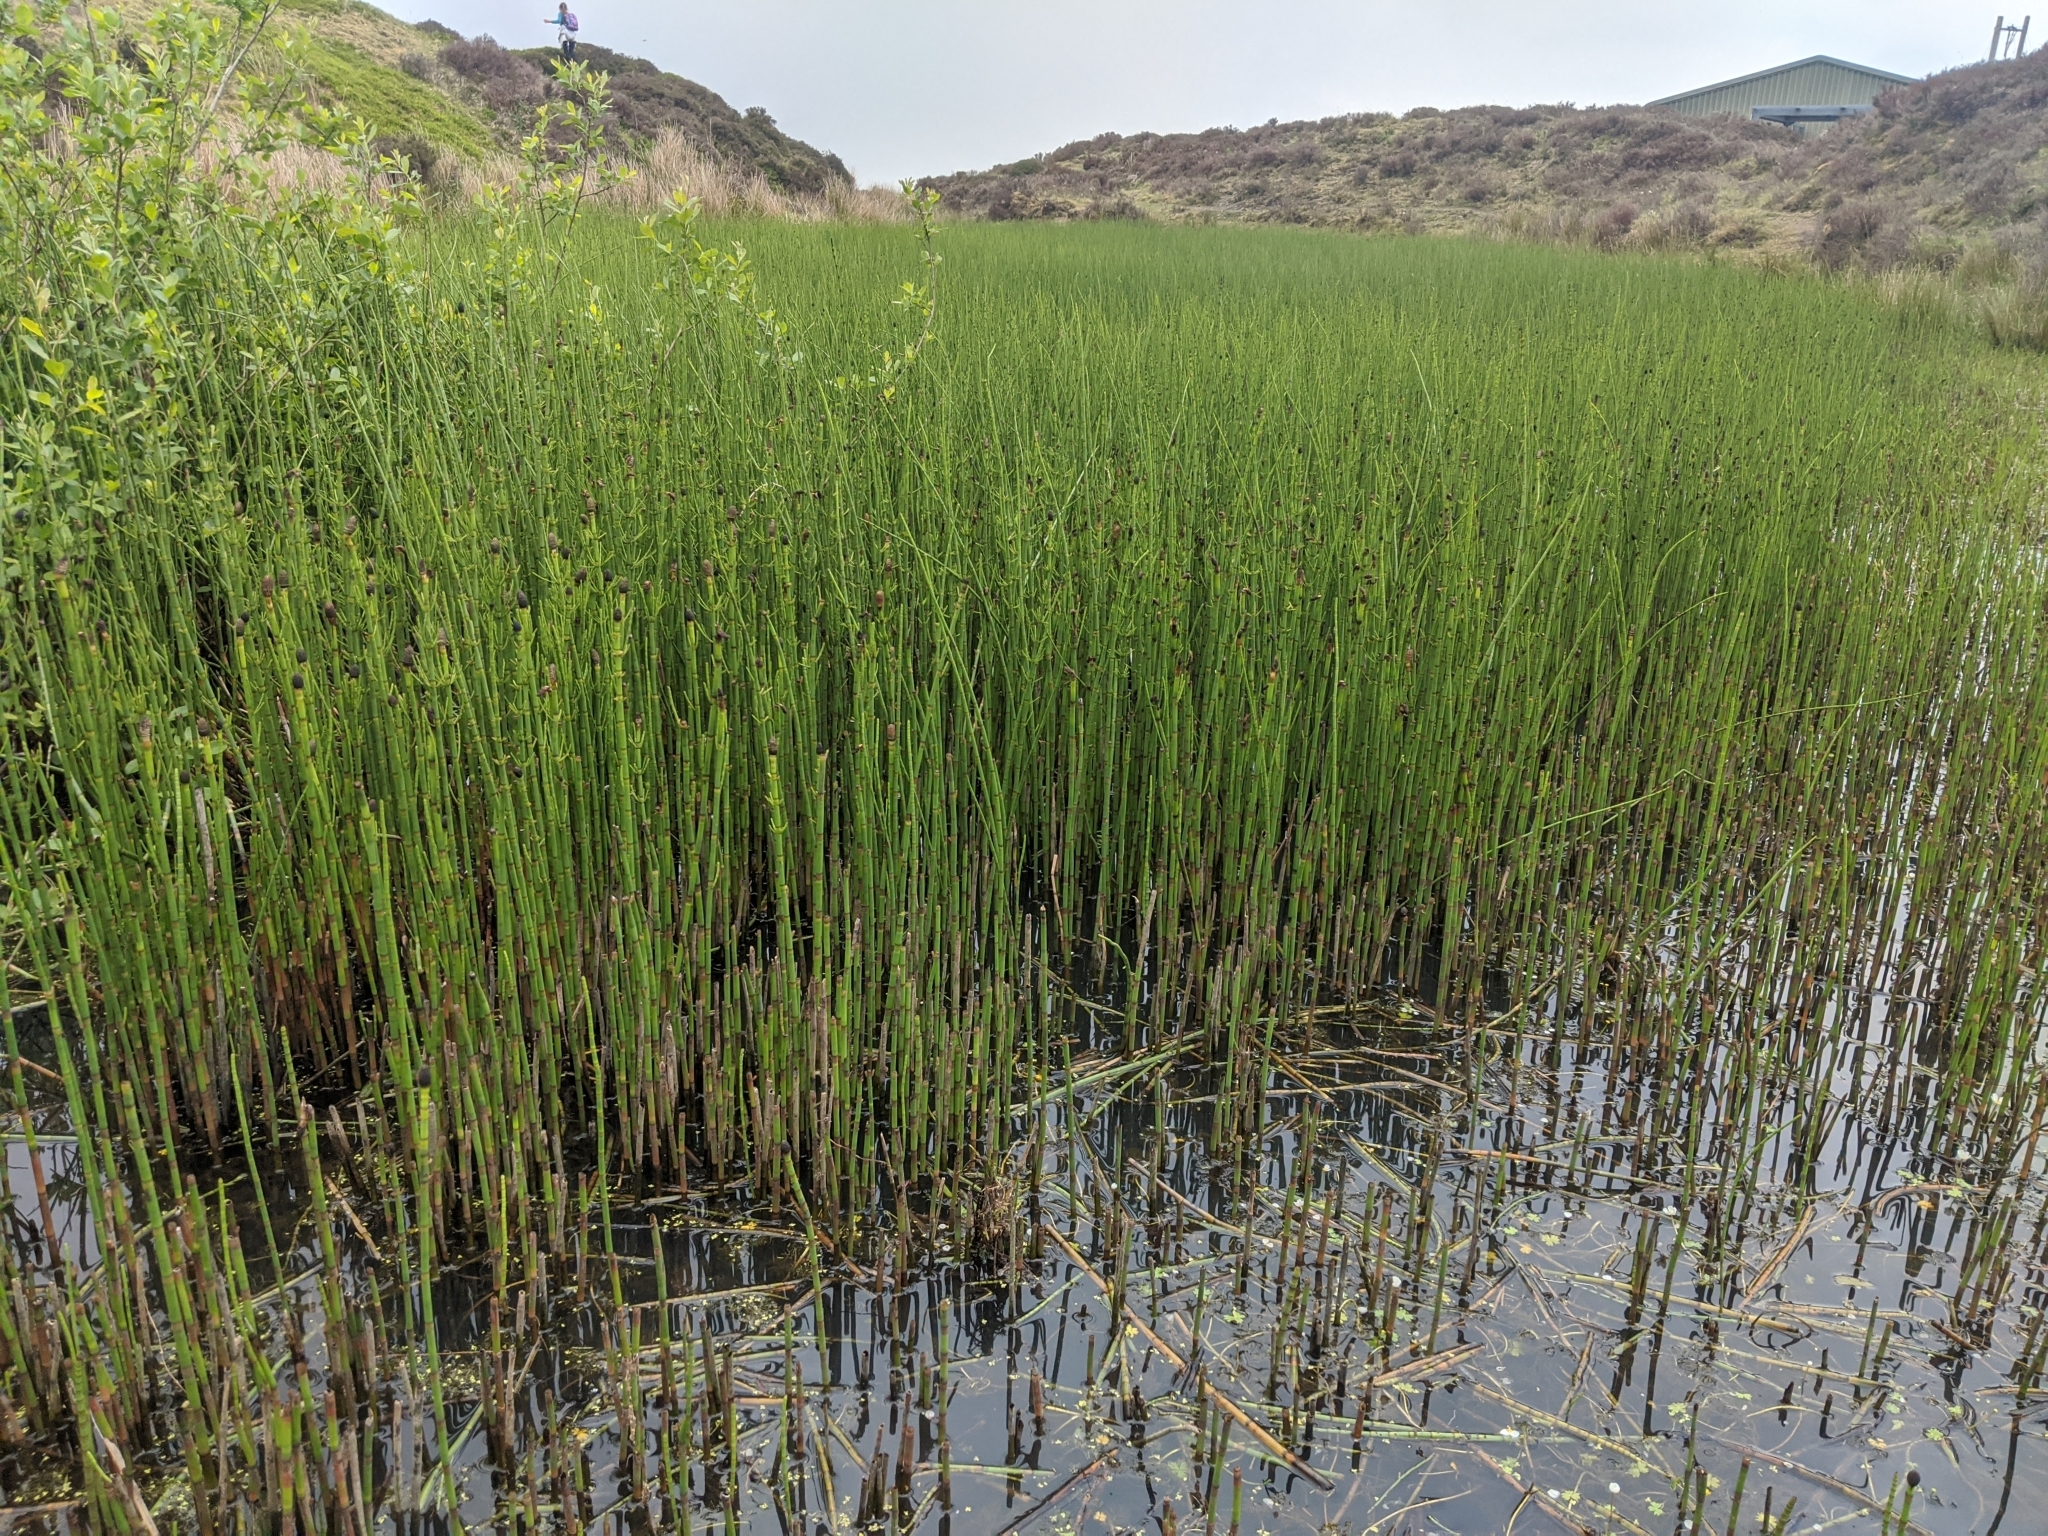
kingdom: Plantae
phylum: Tracheophyta
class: Polypodiopsida
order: Equisetales
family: Equisetaceae
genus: Equisetum
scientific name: Equisetum fluviatile
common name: Water horsetail
